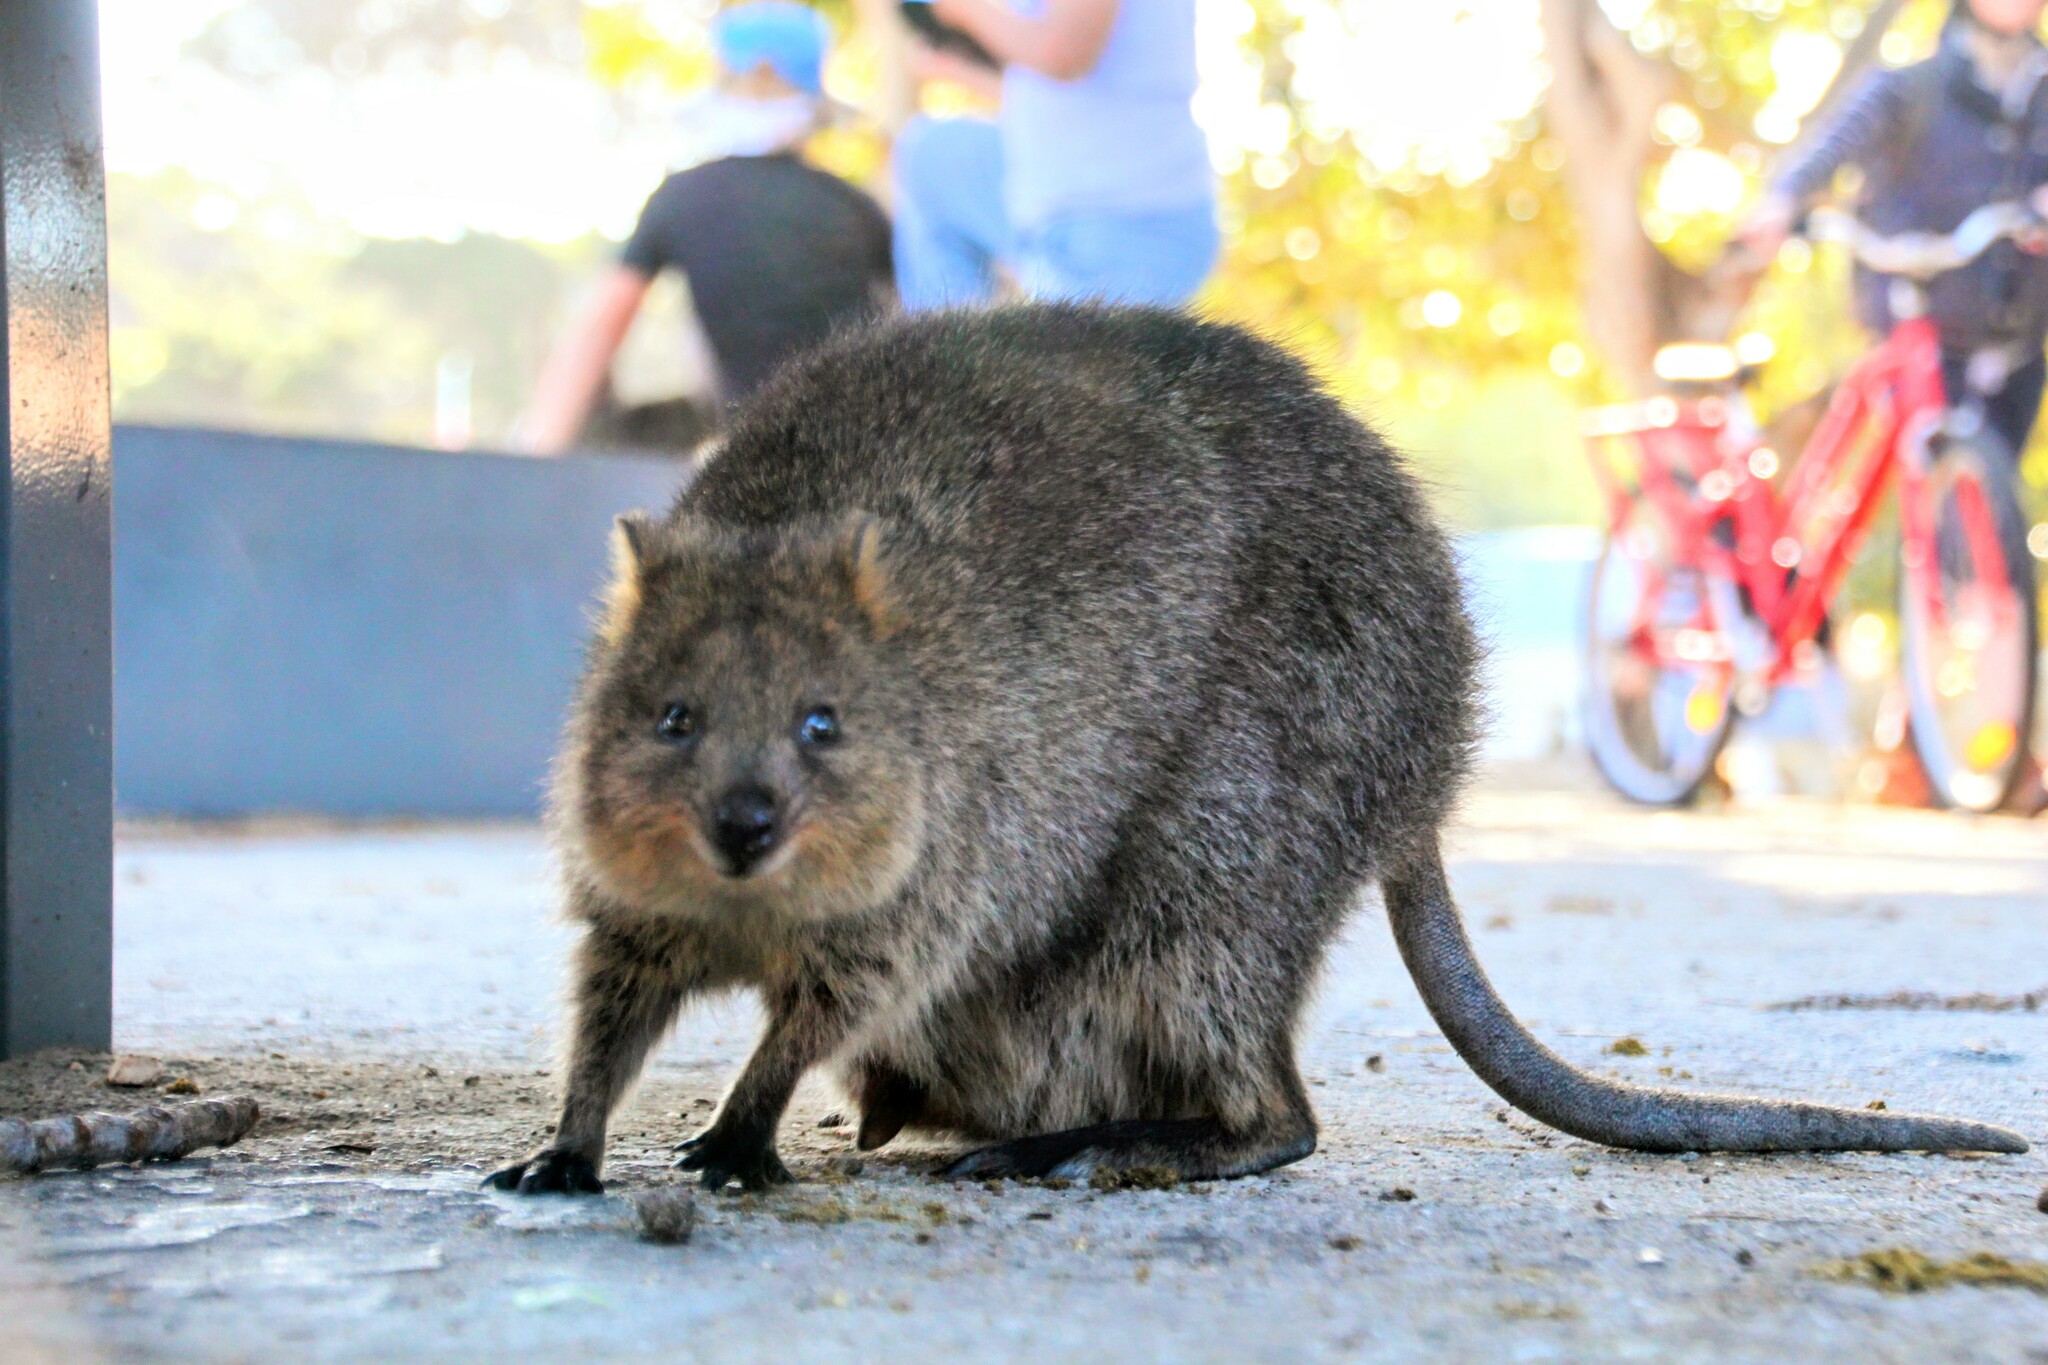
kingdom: Animalia
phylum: Chordata
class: Mammalia
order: Diprotodontia
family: Macropodidae
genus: Setonix
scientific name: Setonix brachyurus
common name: Quokka
